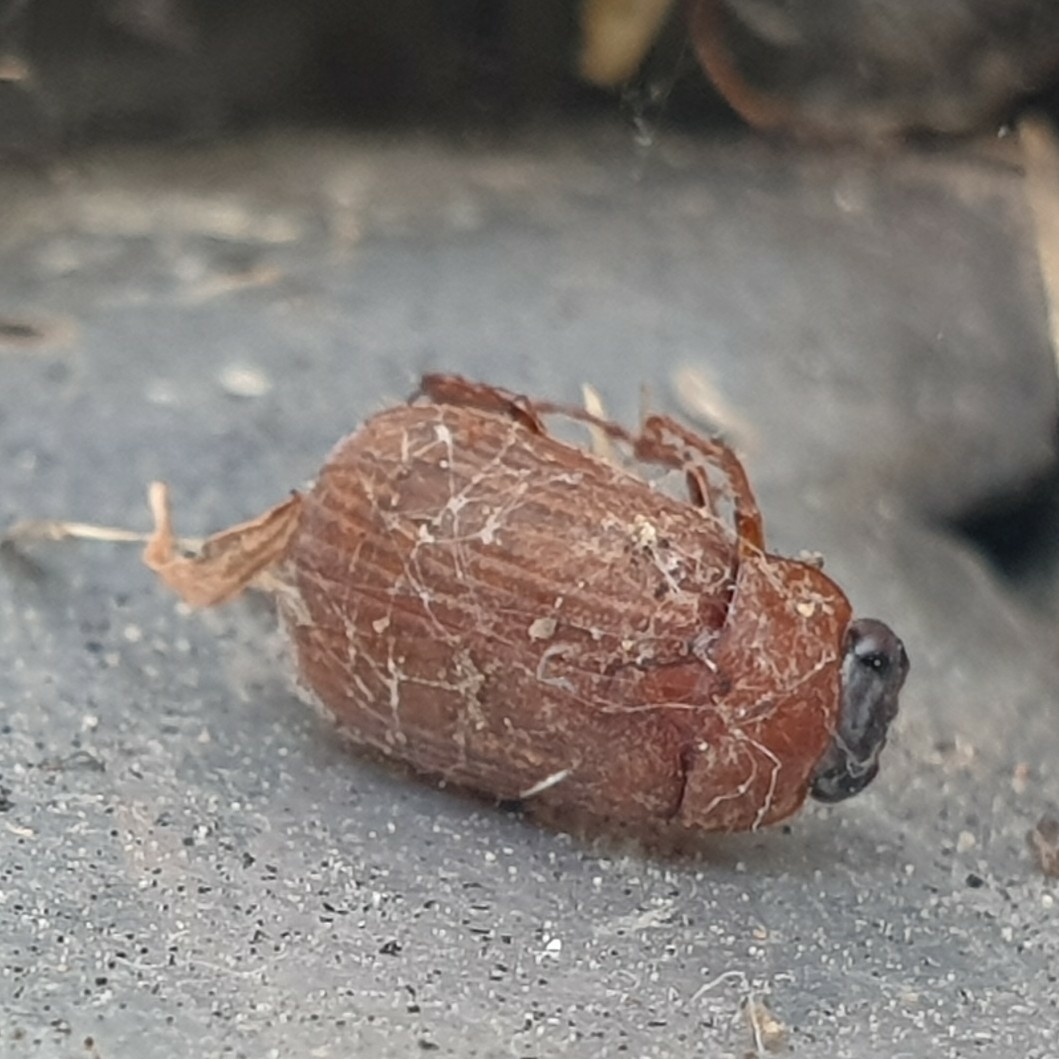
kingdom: Animalia
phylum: Arthropoda
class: Insecta
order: Coleoptera
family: Scarabaeidae
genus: Serica
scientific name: Serica brunnea
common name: Brown chafer
